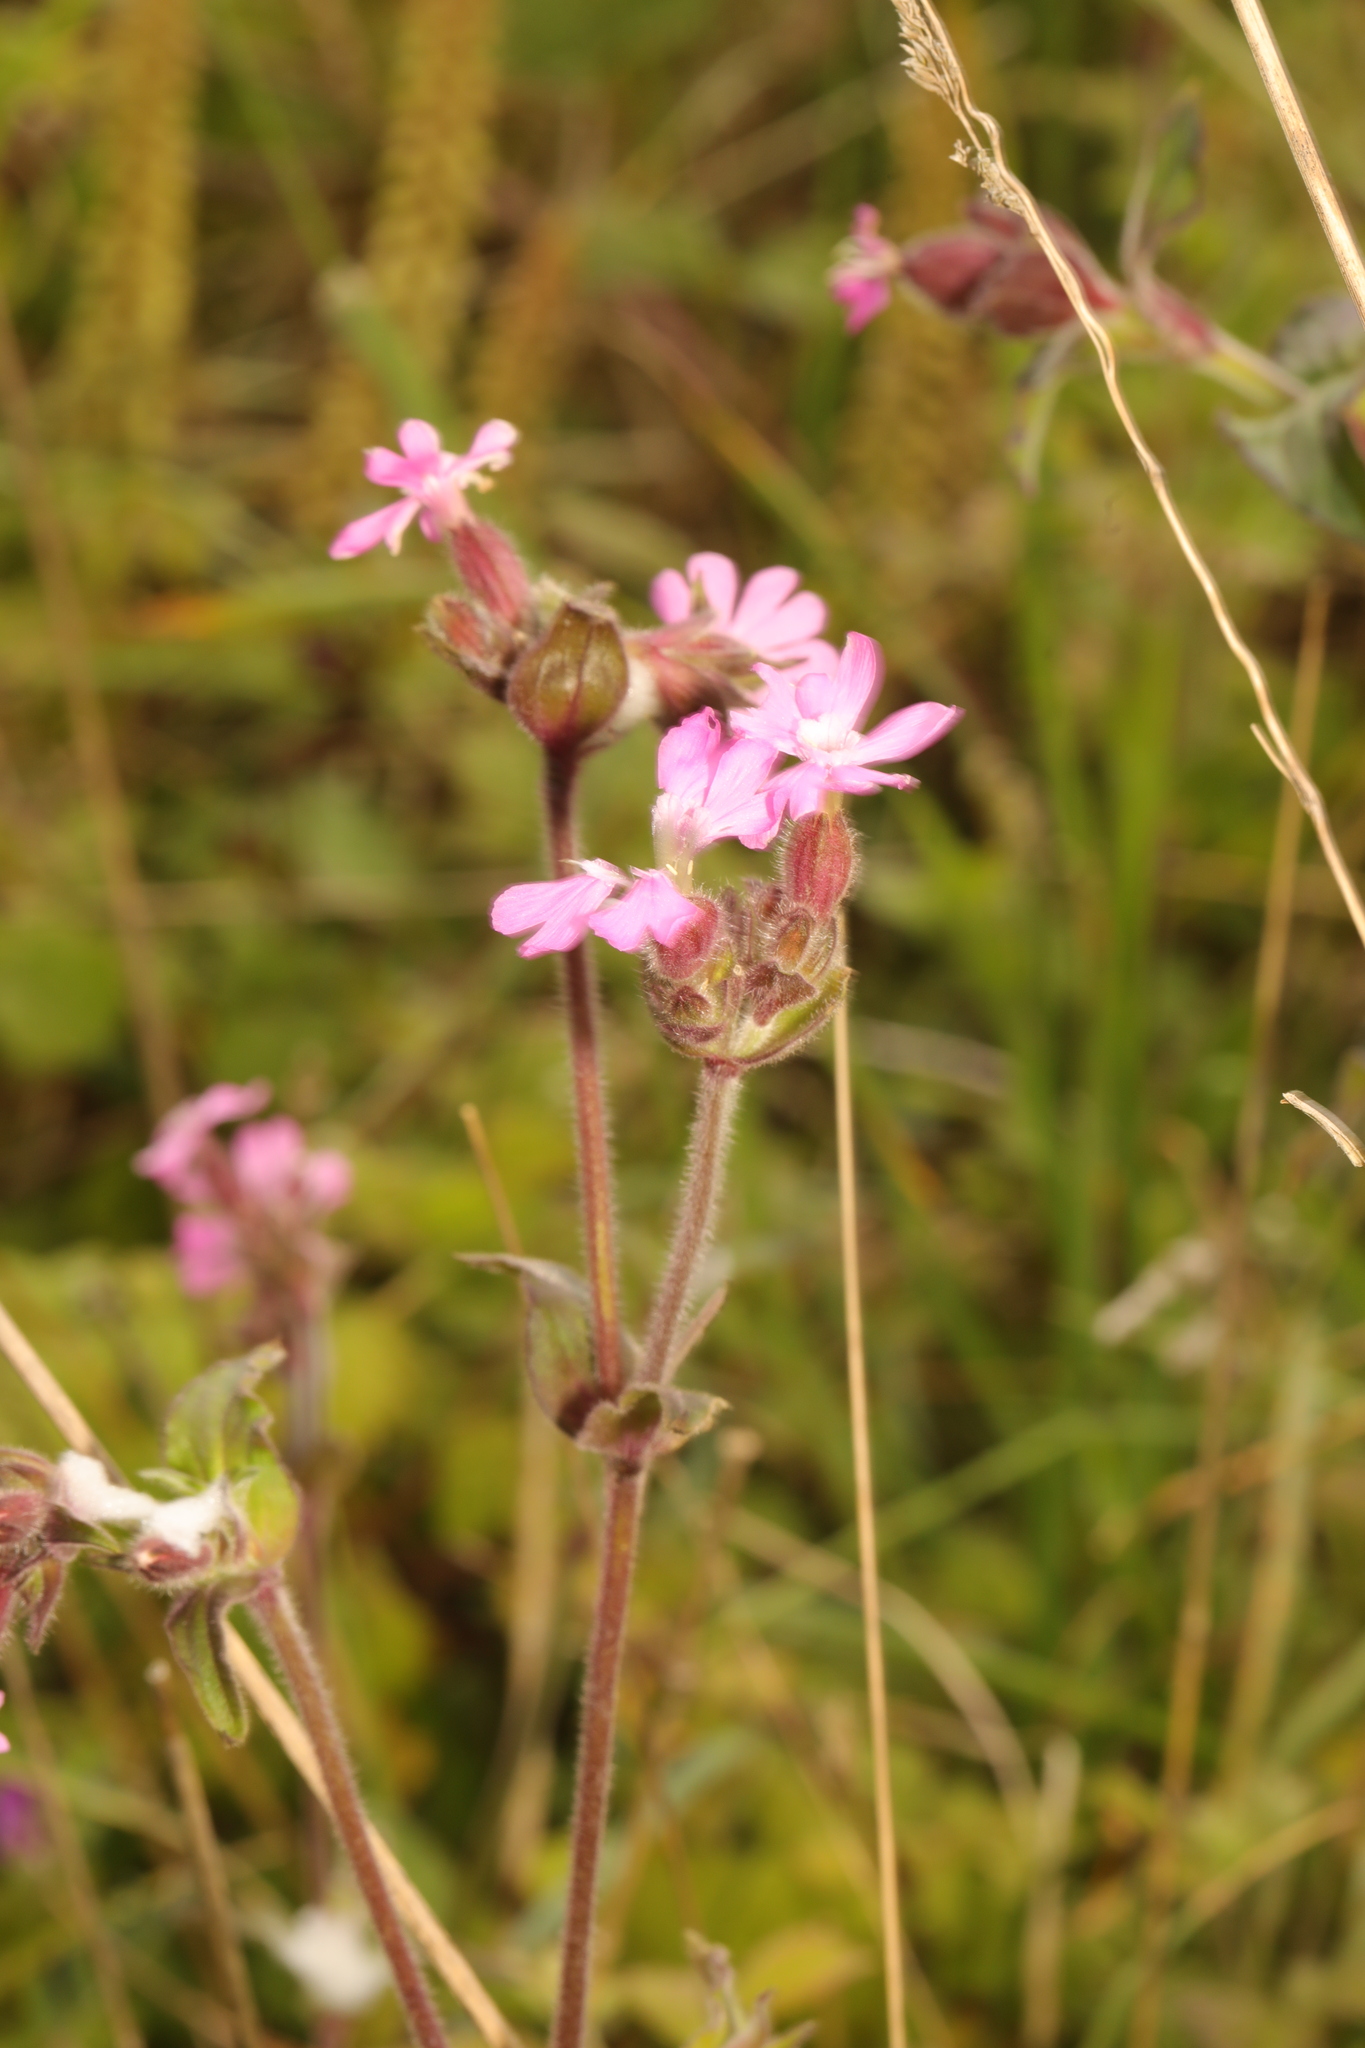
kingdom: Plantae
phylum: Tracheophyta
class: Magnoliopsida
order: Caryophyllales
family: Caryophyllaceae
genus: Silene
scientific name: Silene dioica
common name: Red campion
